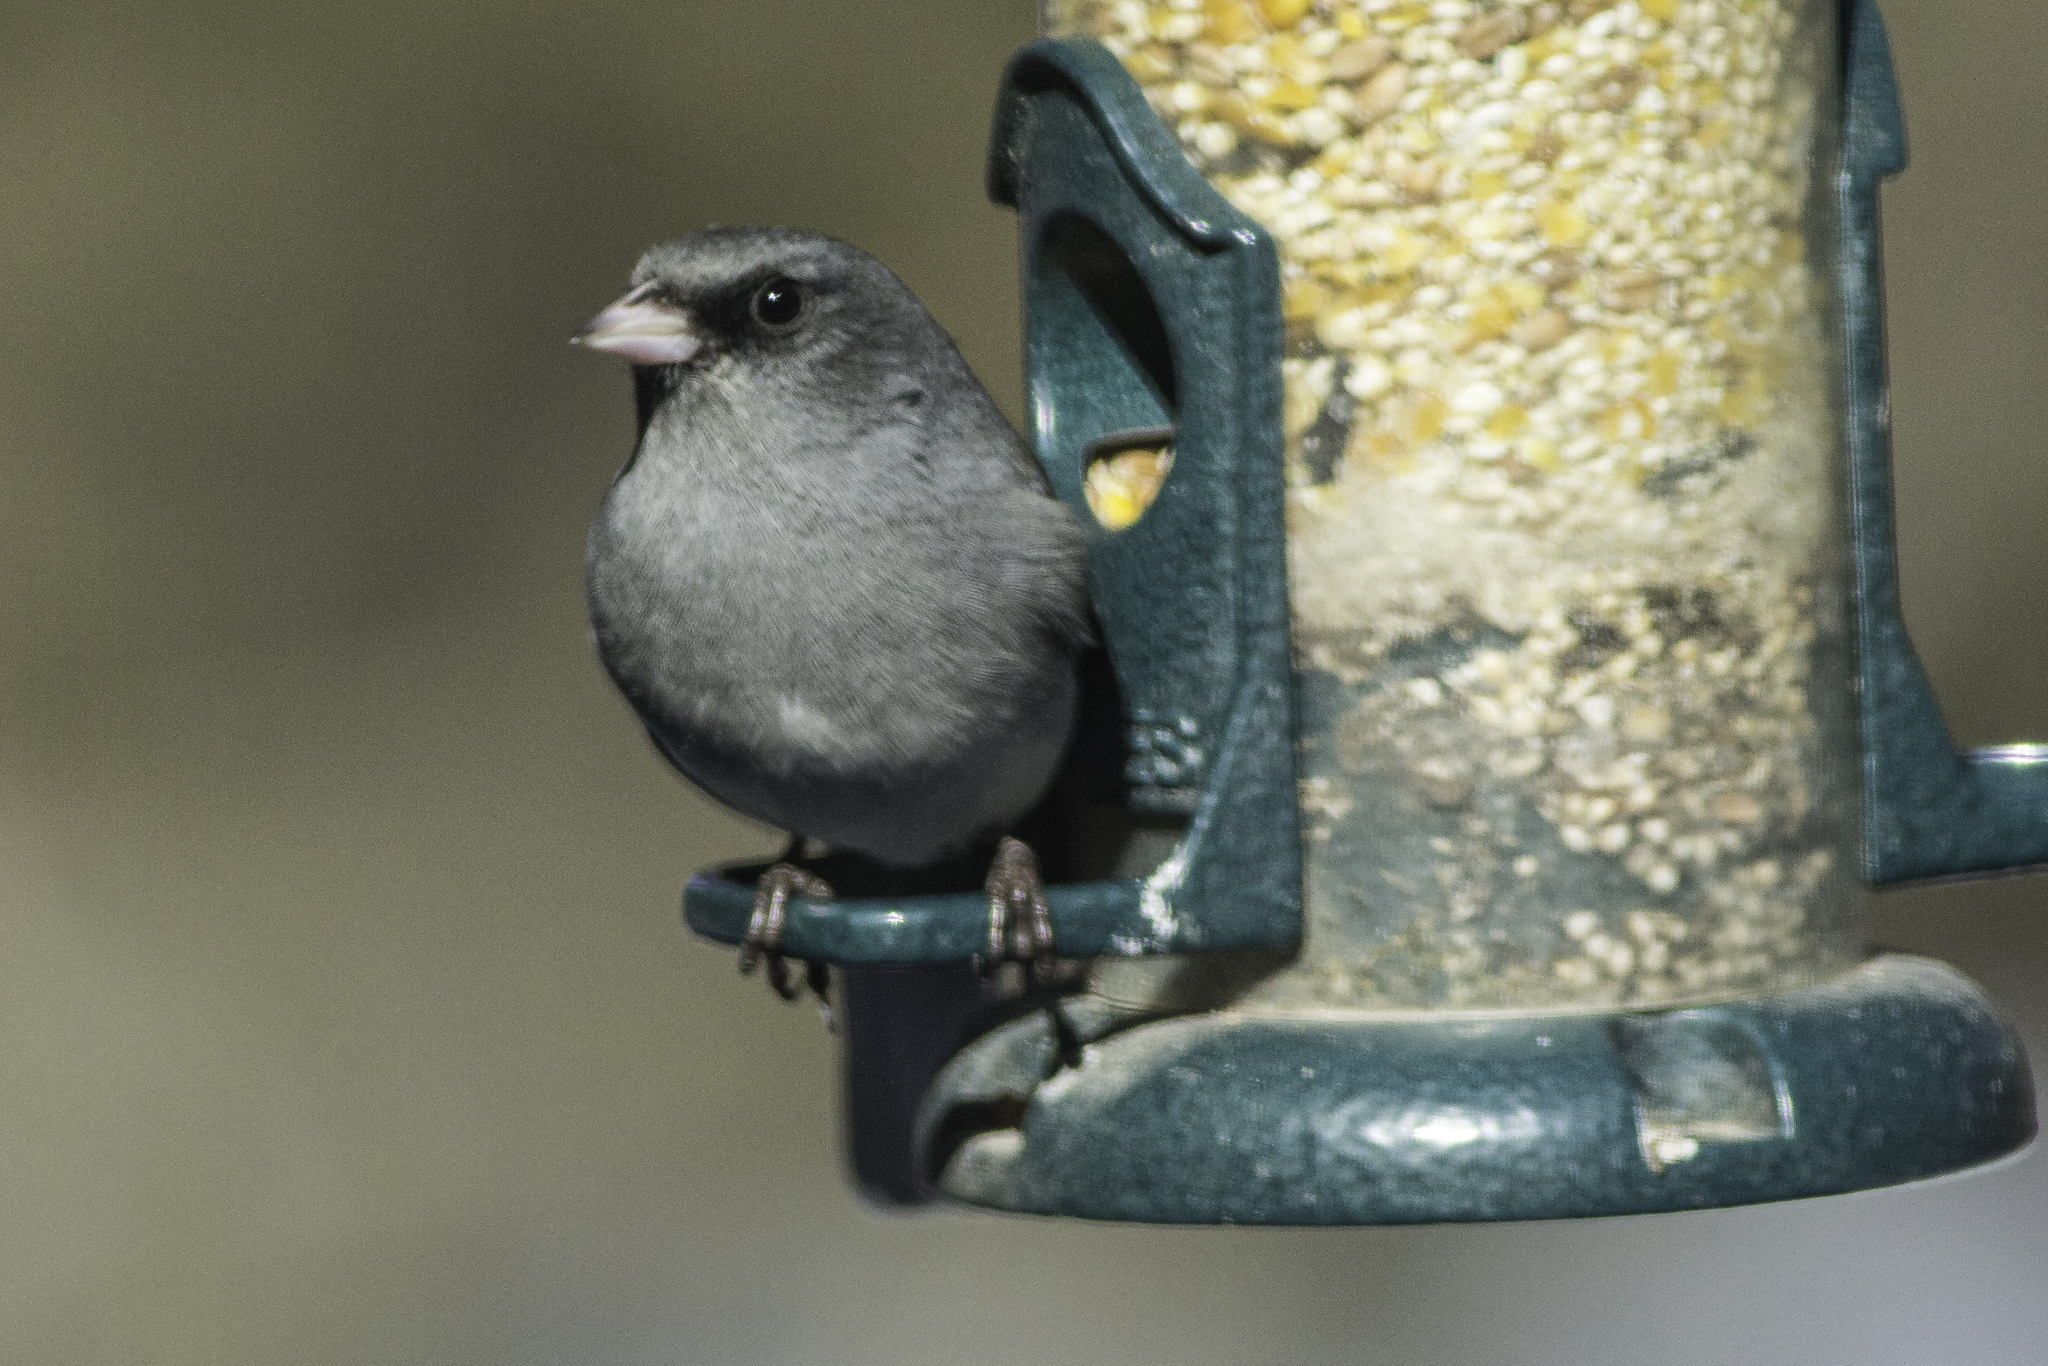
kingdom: Animalia
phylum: Chordata
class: Aves
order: Passeriformes
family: Passerellidae
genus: Junco
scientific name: Junco hyemalis
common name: Dark-eyed junco
